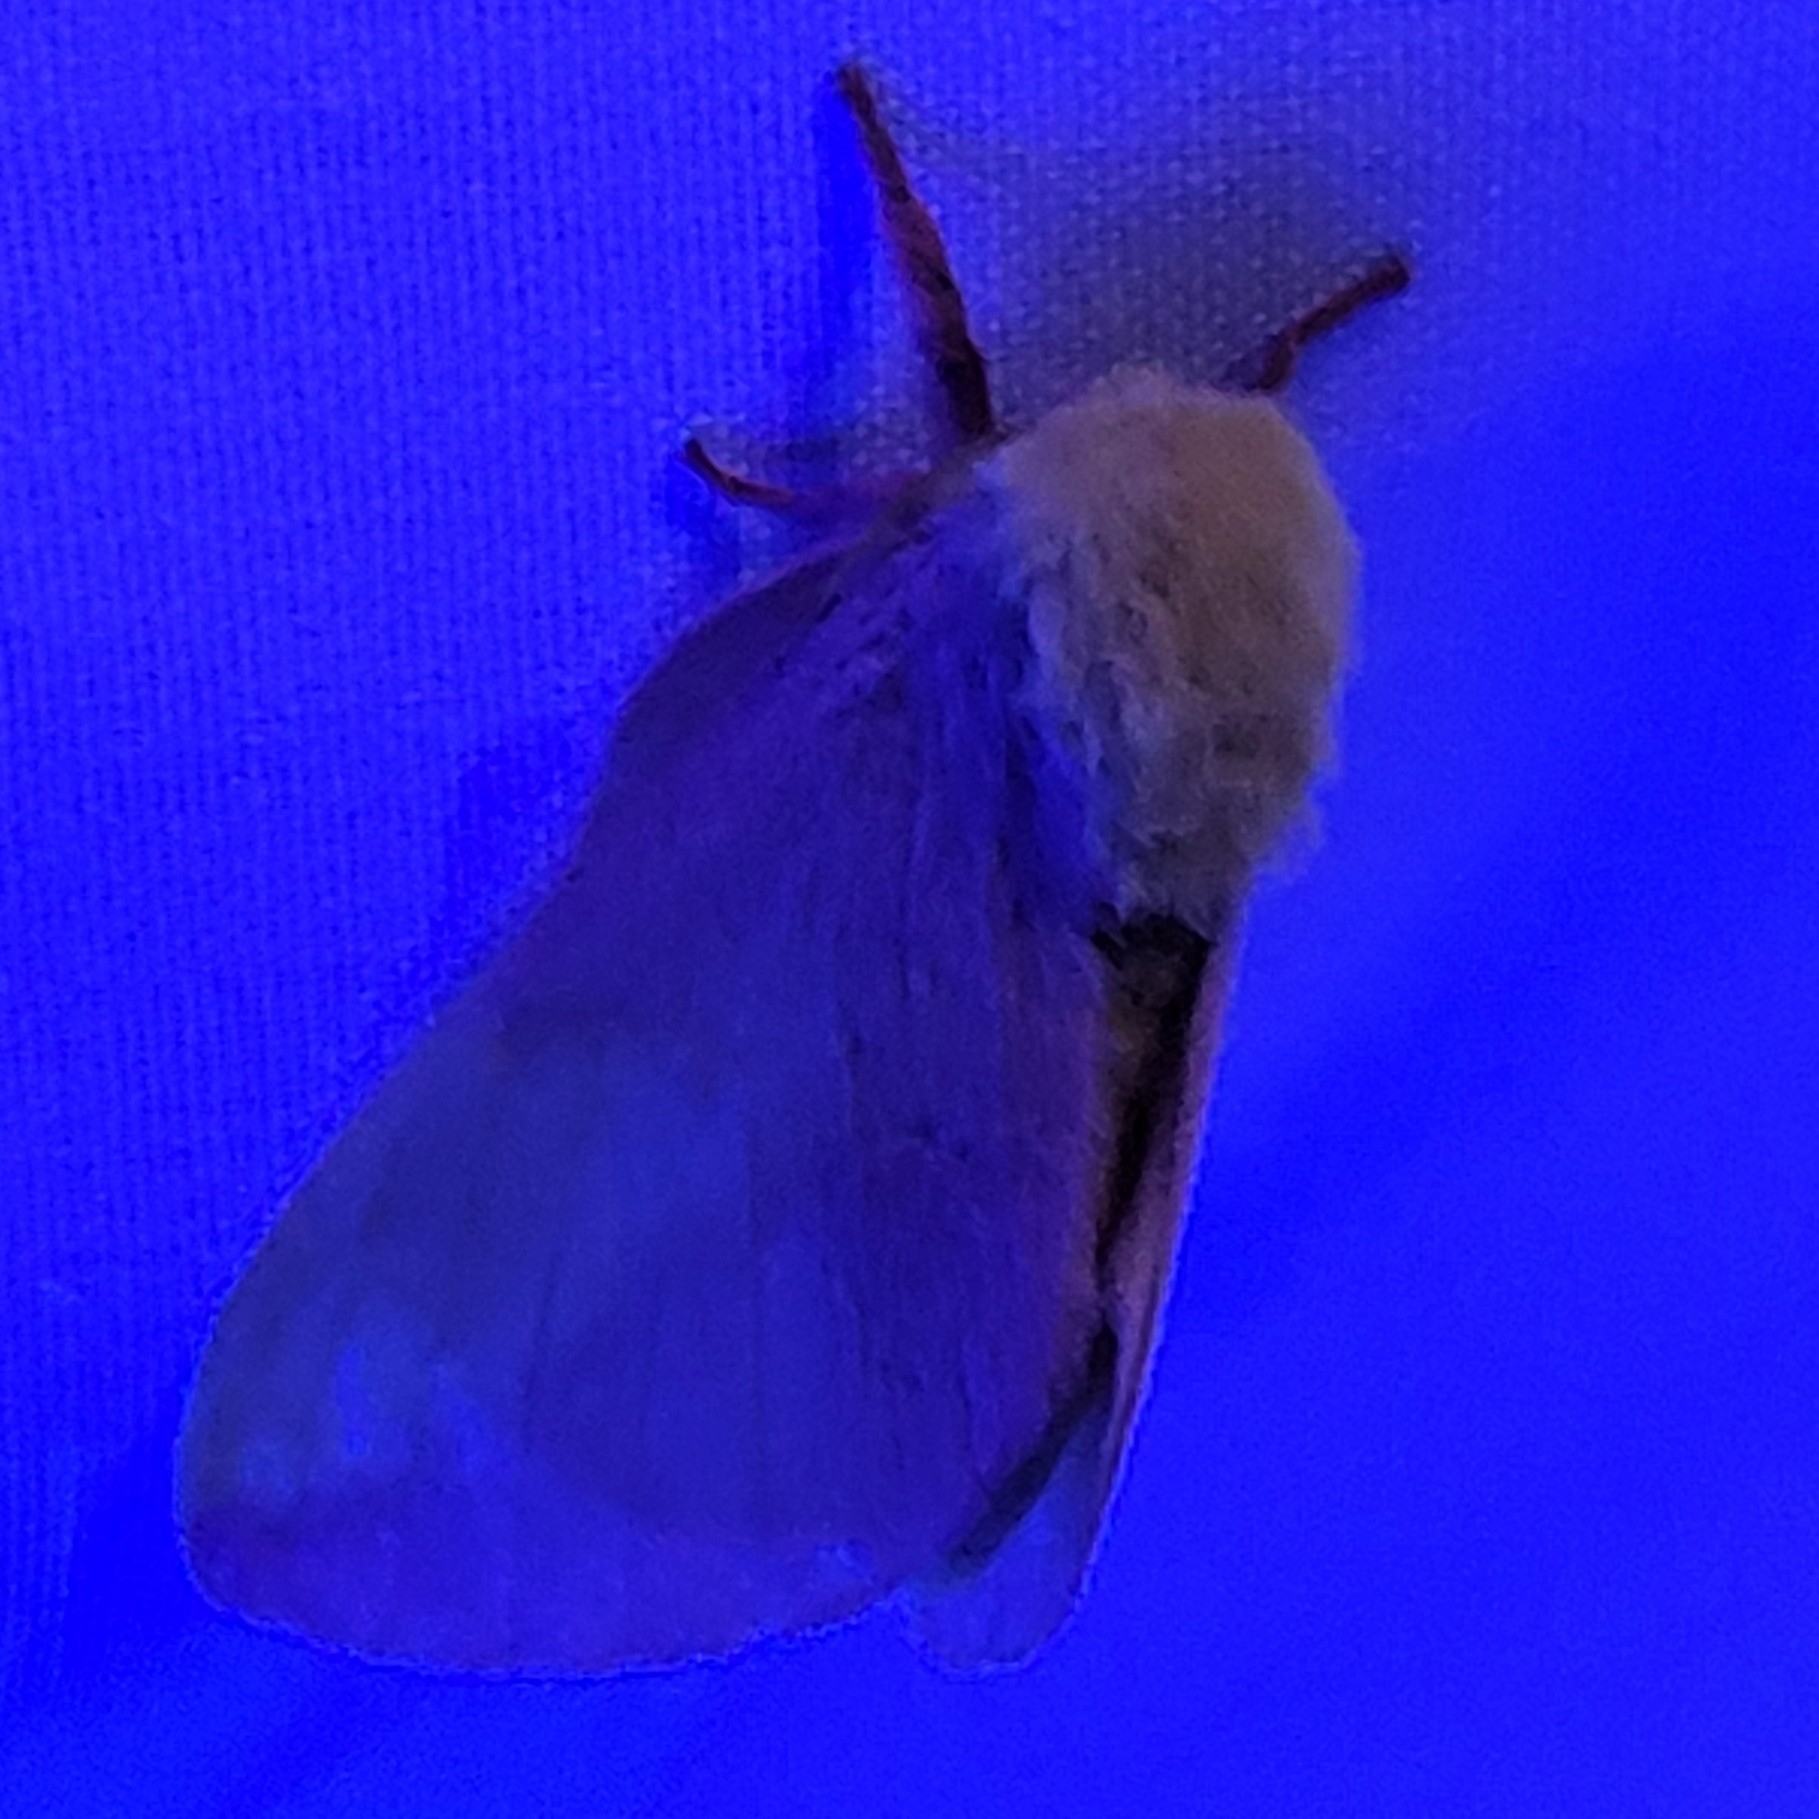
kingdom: Animalia
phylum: Arthropoda
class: Insecta
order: Lepidoptera
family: Saturniidae
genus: Dryocampa
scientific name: Dryocampa rubicunda
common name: Rosy maple moth
